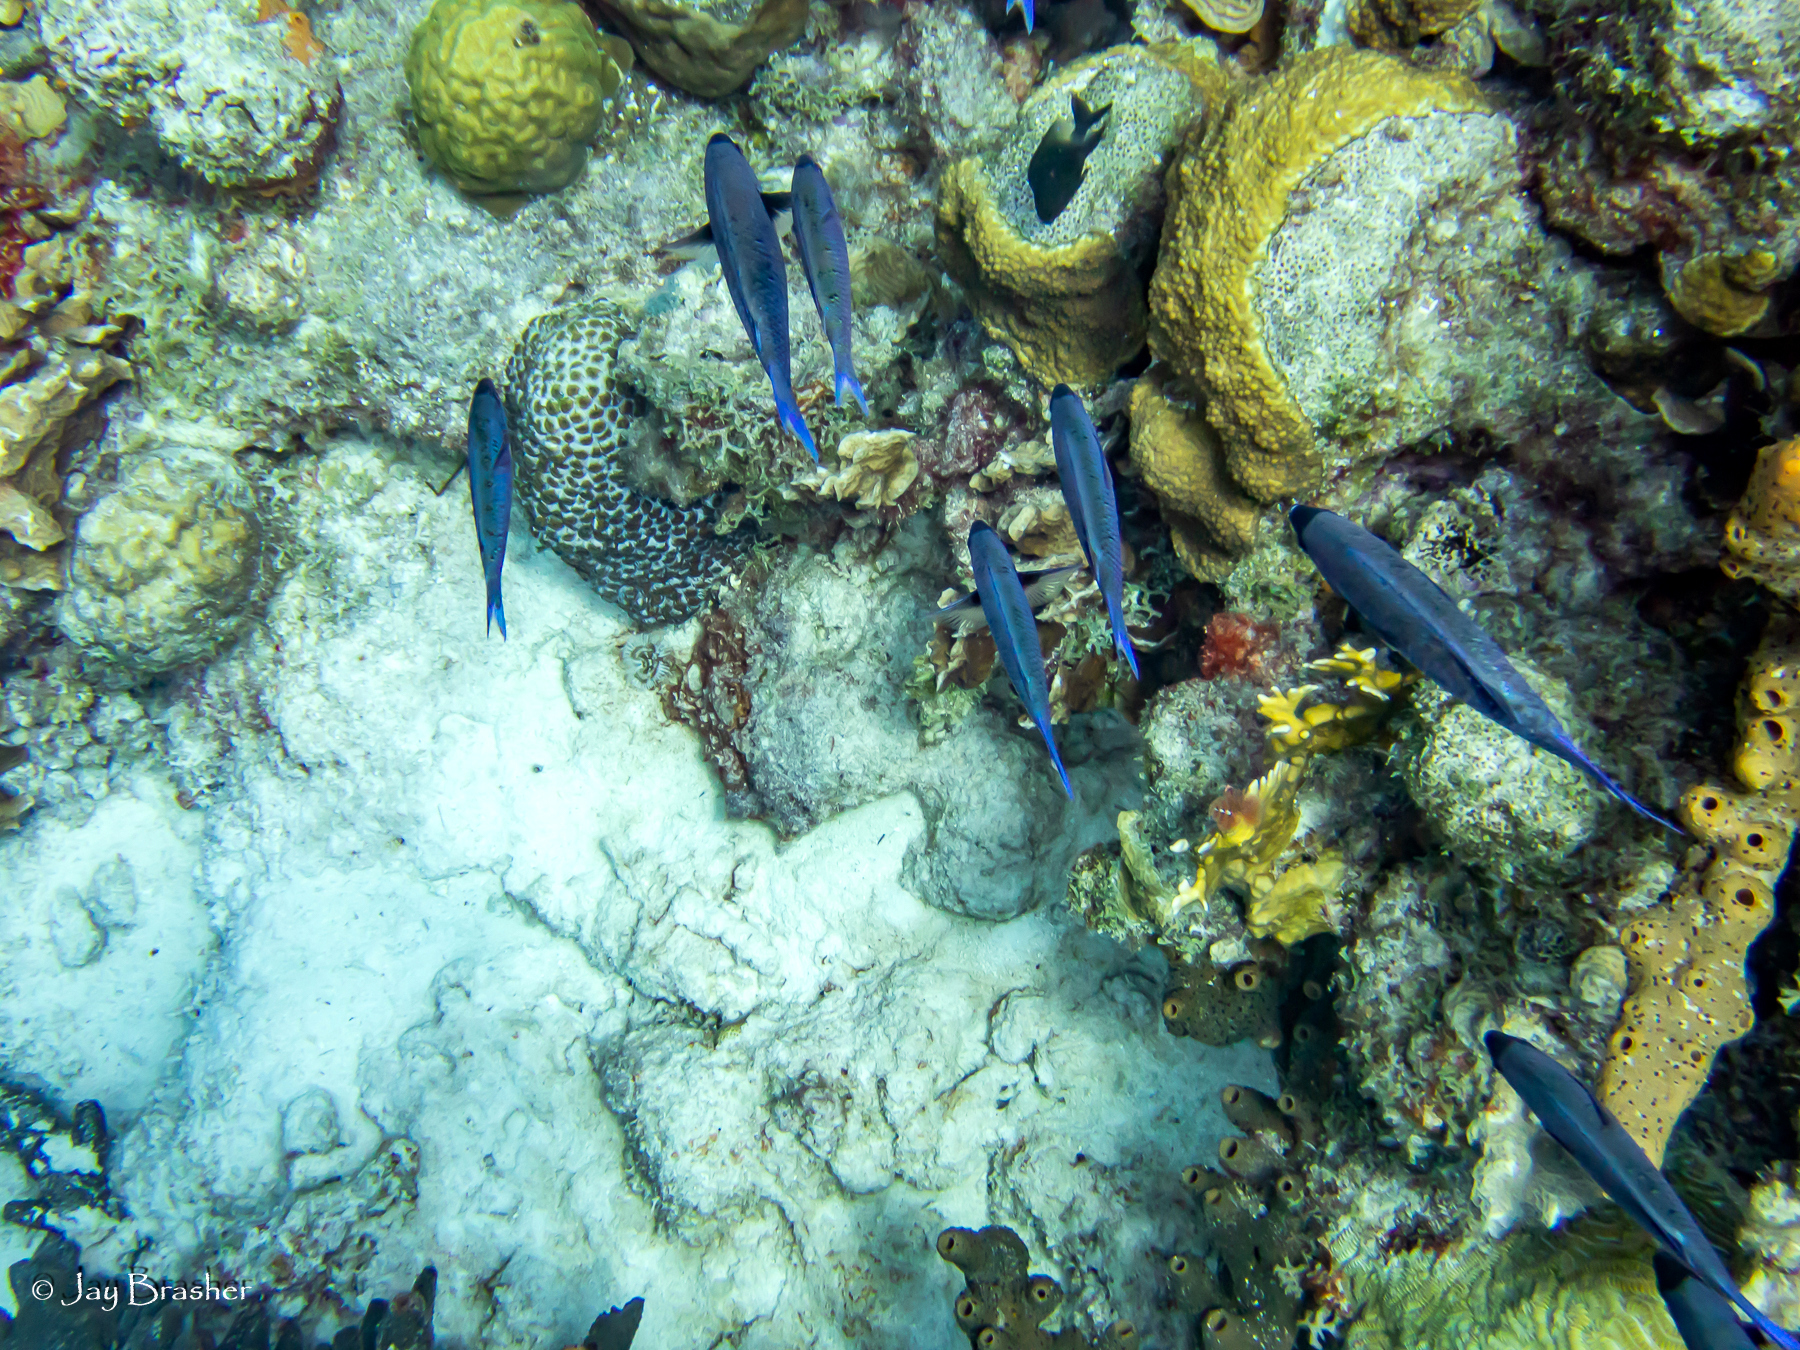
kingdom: Animalia
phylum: Chordata
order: Perciformes
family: Labridae
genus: Bodianus
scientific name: Bodianus
